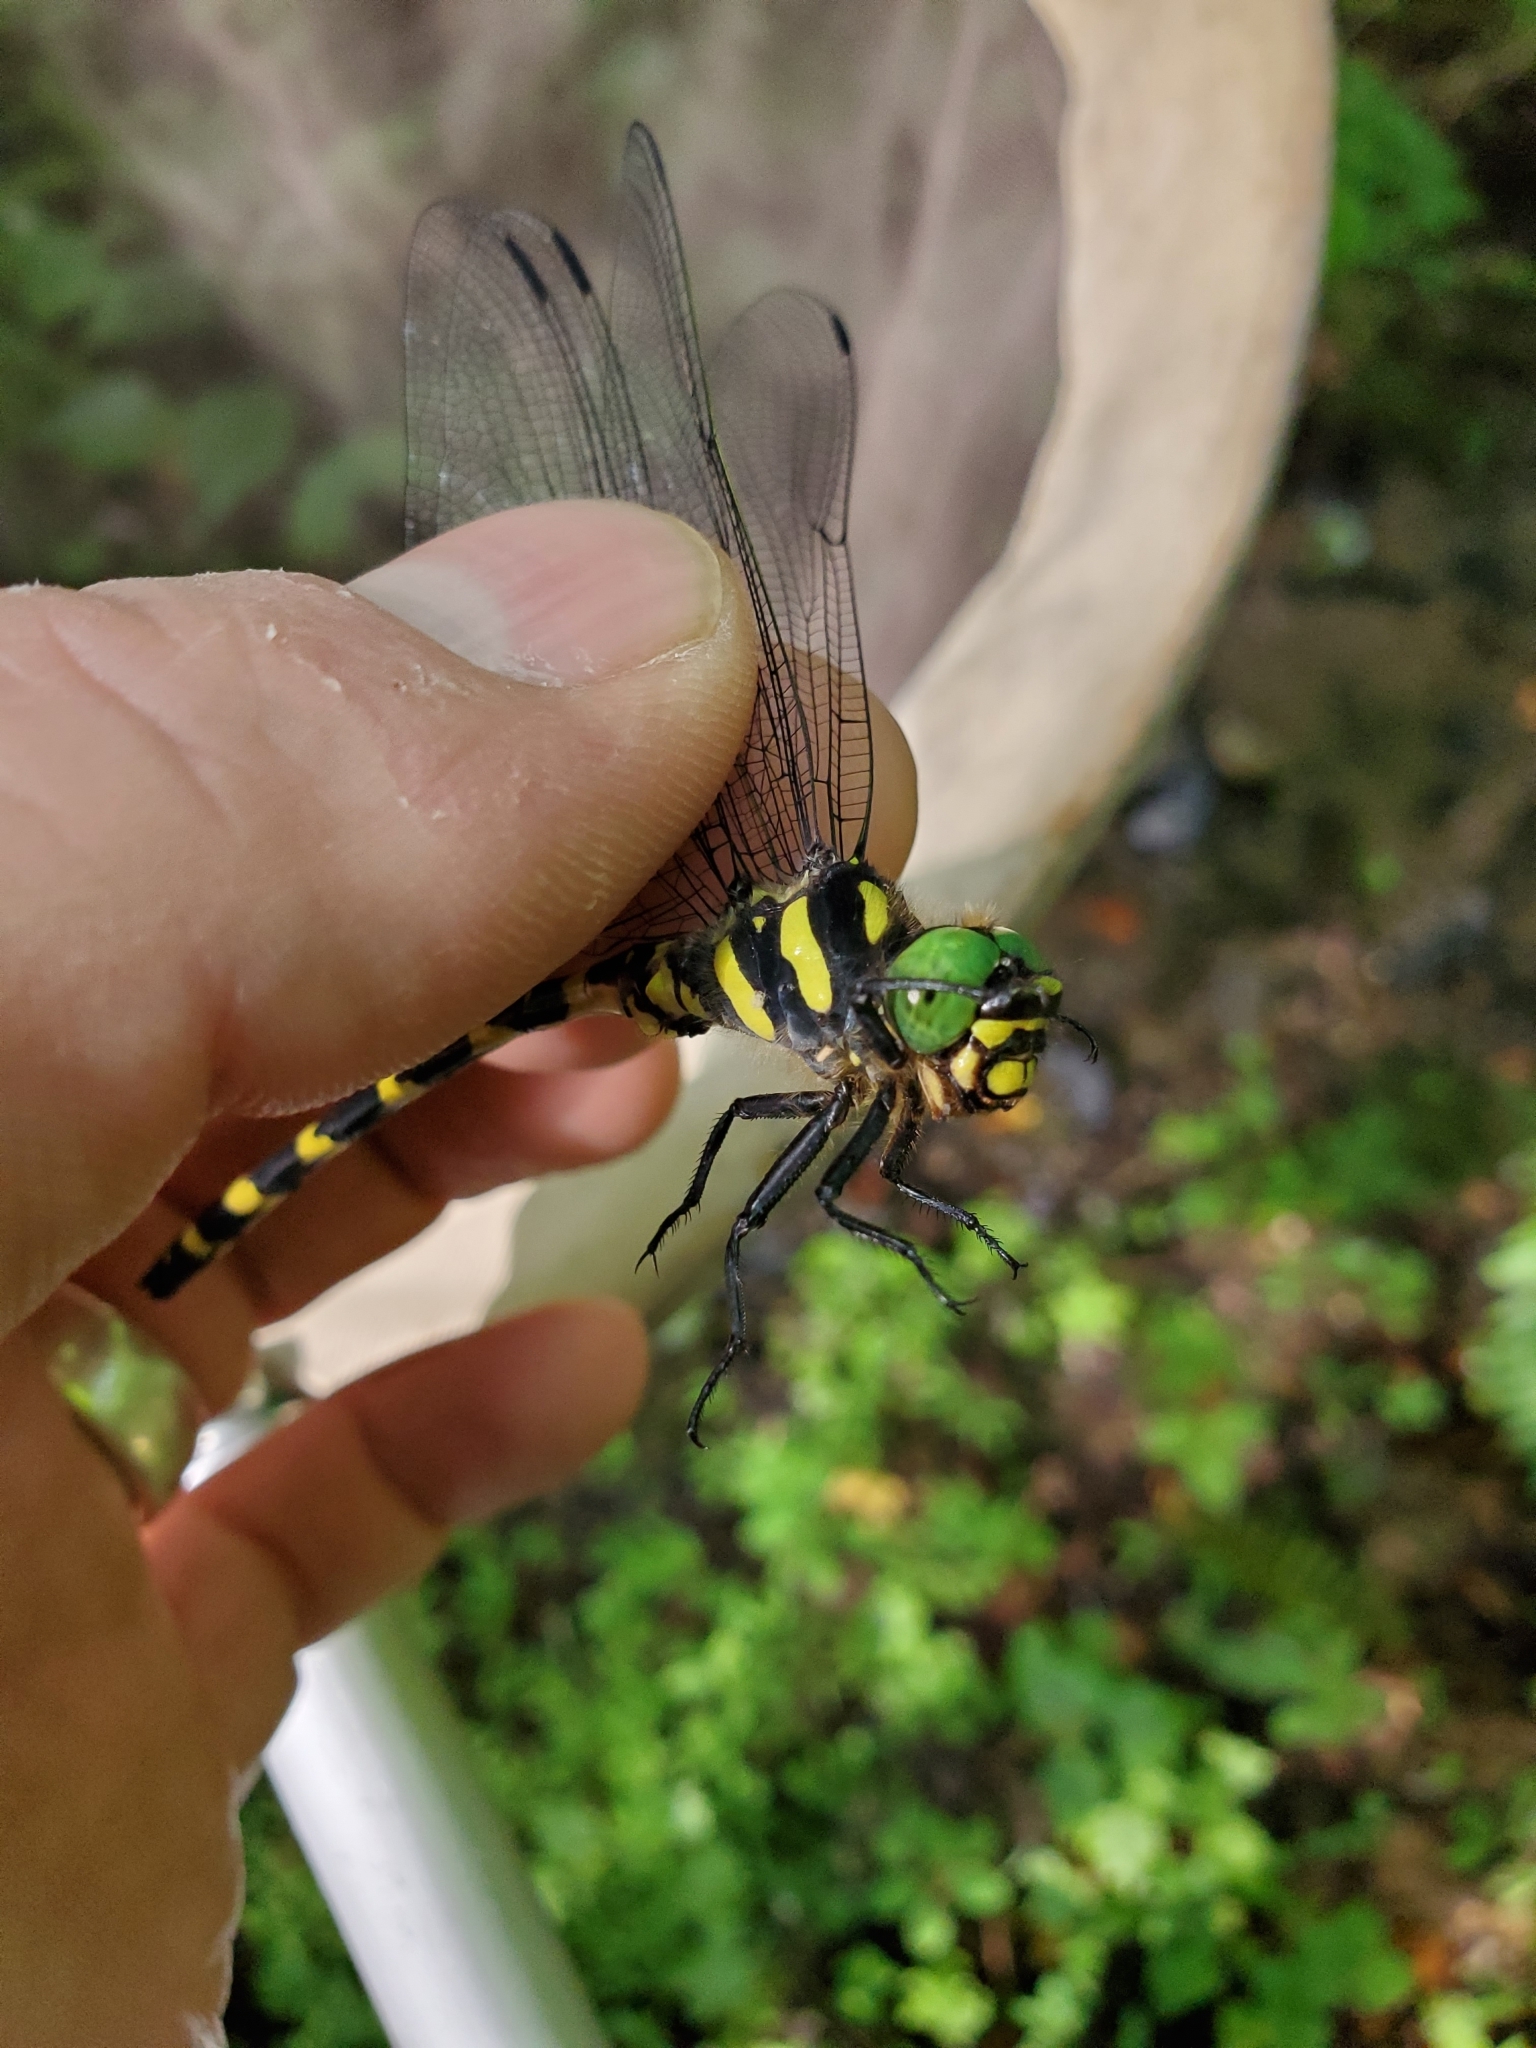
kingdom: Animalia
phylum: Arthropoda
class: Insecta
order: Odonata
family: Cordulegastridae
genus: Cordulegaster
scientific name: Cordulegaster erronea
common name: Tiger spiketail
